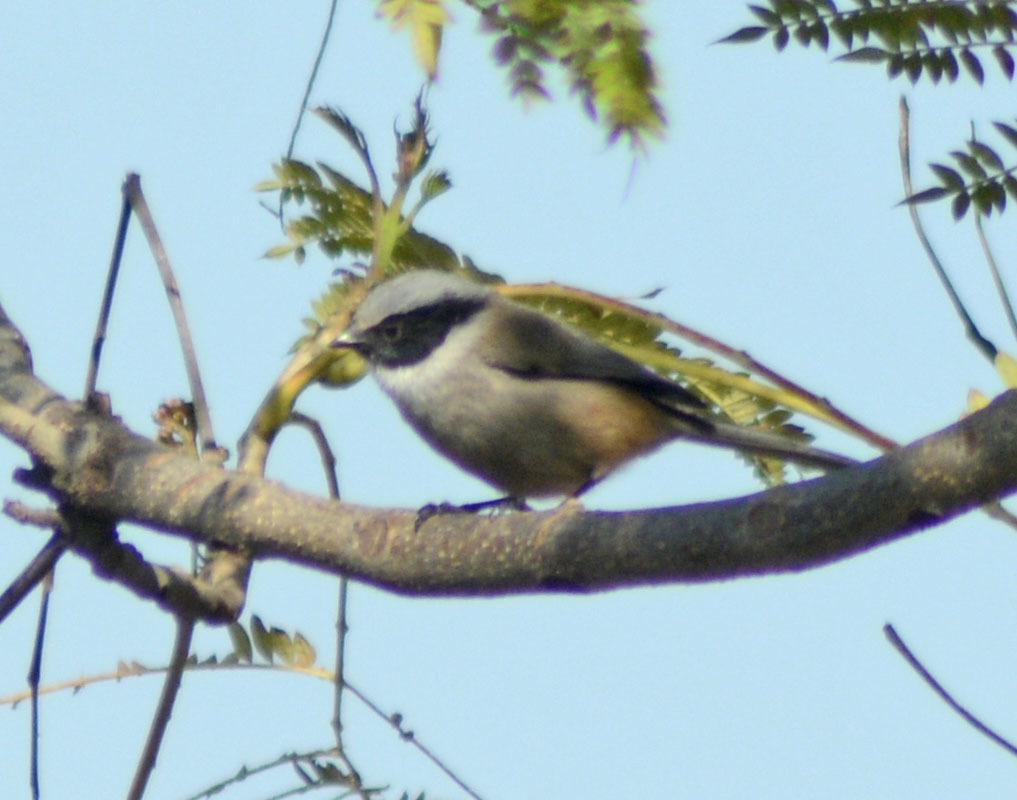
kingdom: Animalia
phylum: Chordata
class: Aves
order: Passeriformes
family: Aegithalidae
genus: Psaltriparus
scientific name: Psaltriparus minimus
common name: American bushtit
